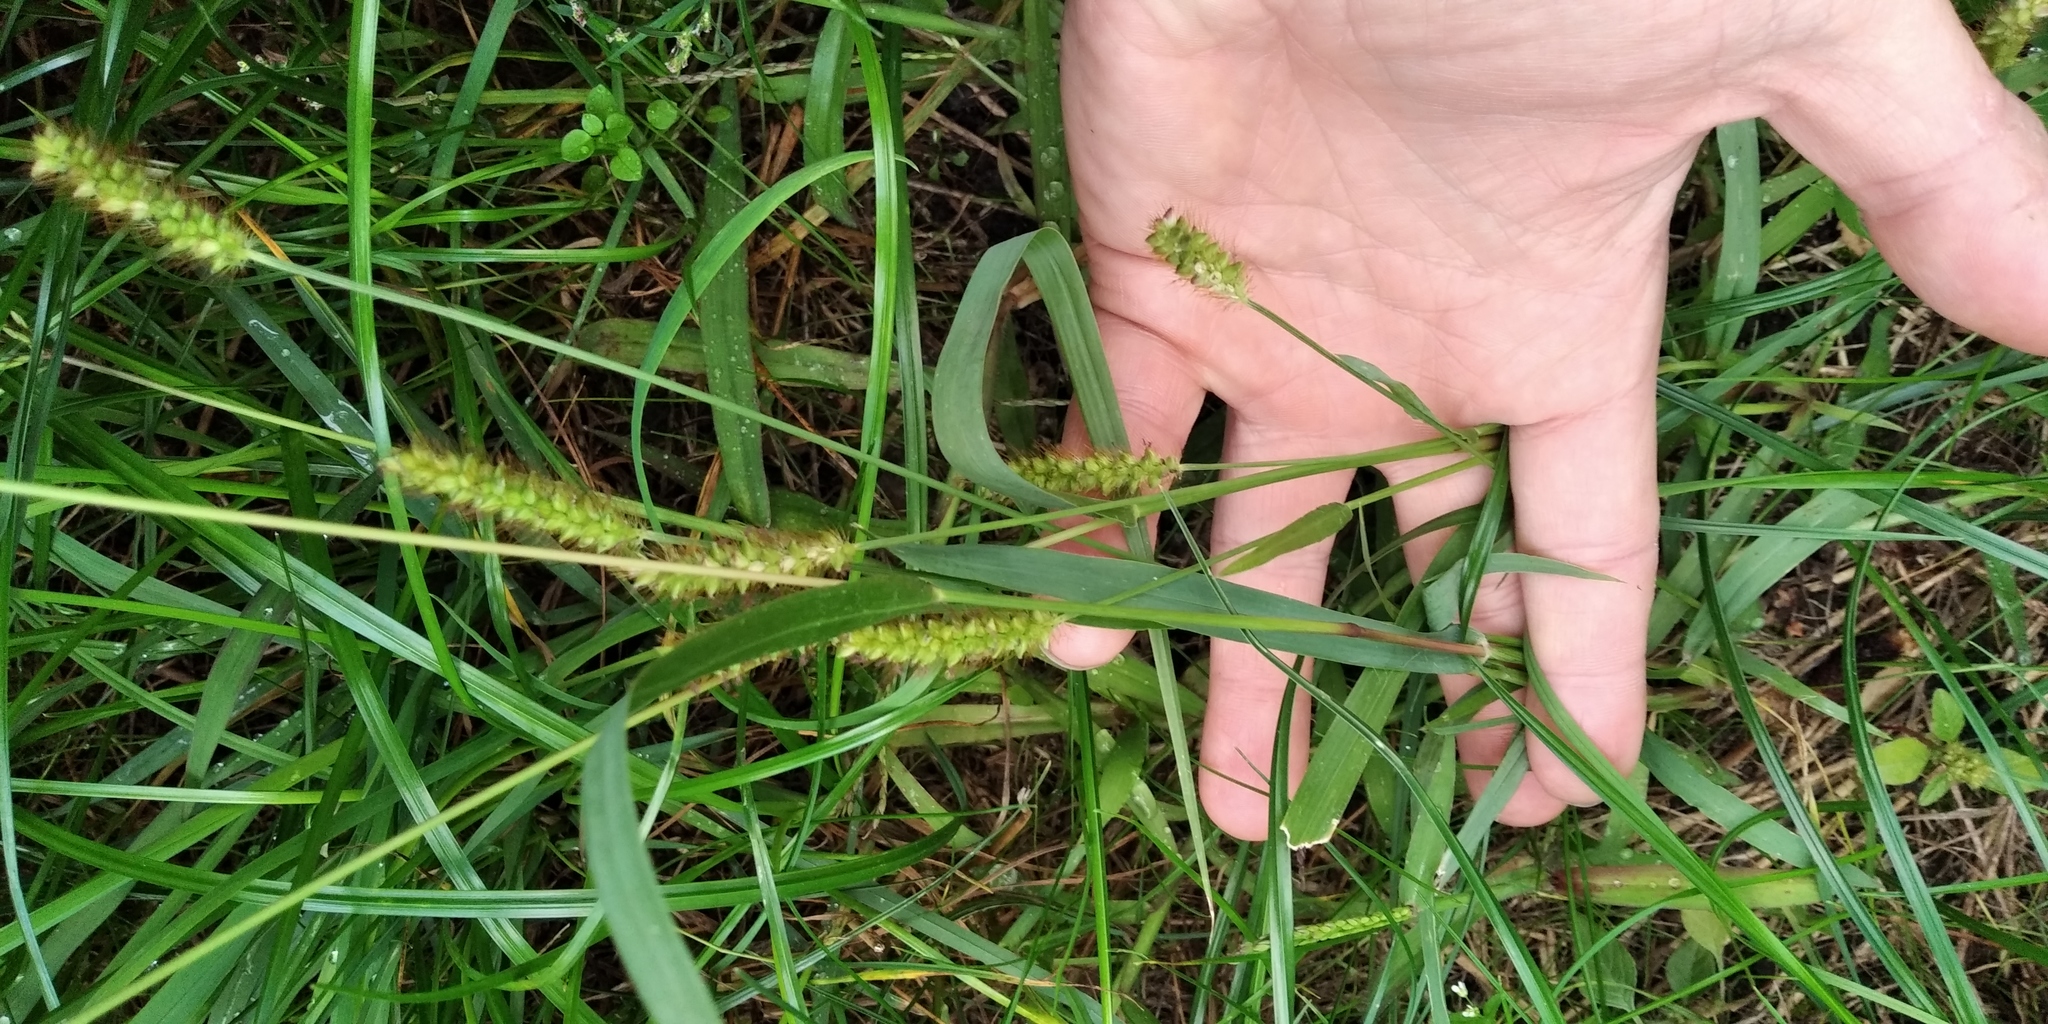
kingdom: Plantae
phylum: Tracheophyta
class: Liliopsida
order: Poales
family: Poaceae
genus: Setaria
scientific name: Setaria pumila
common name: Yellow bristle-grass
